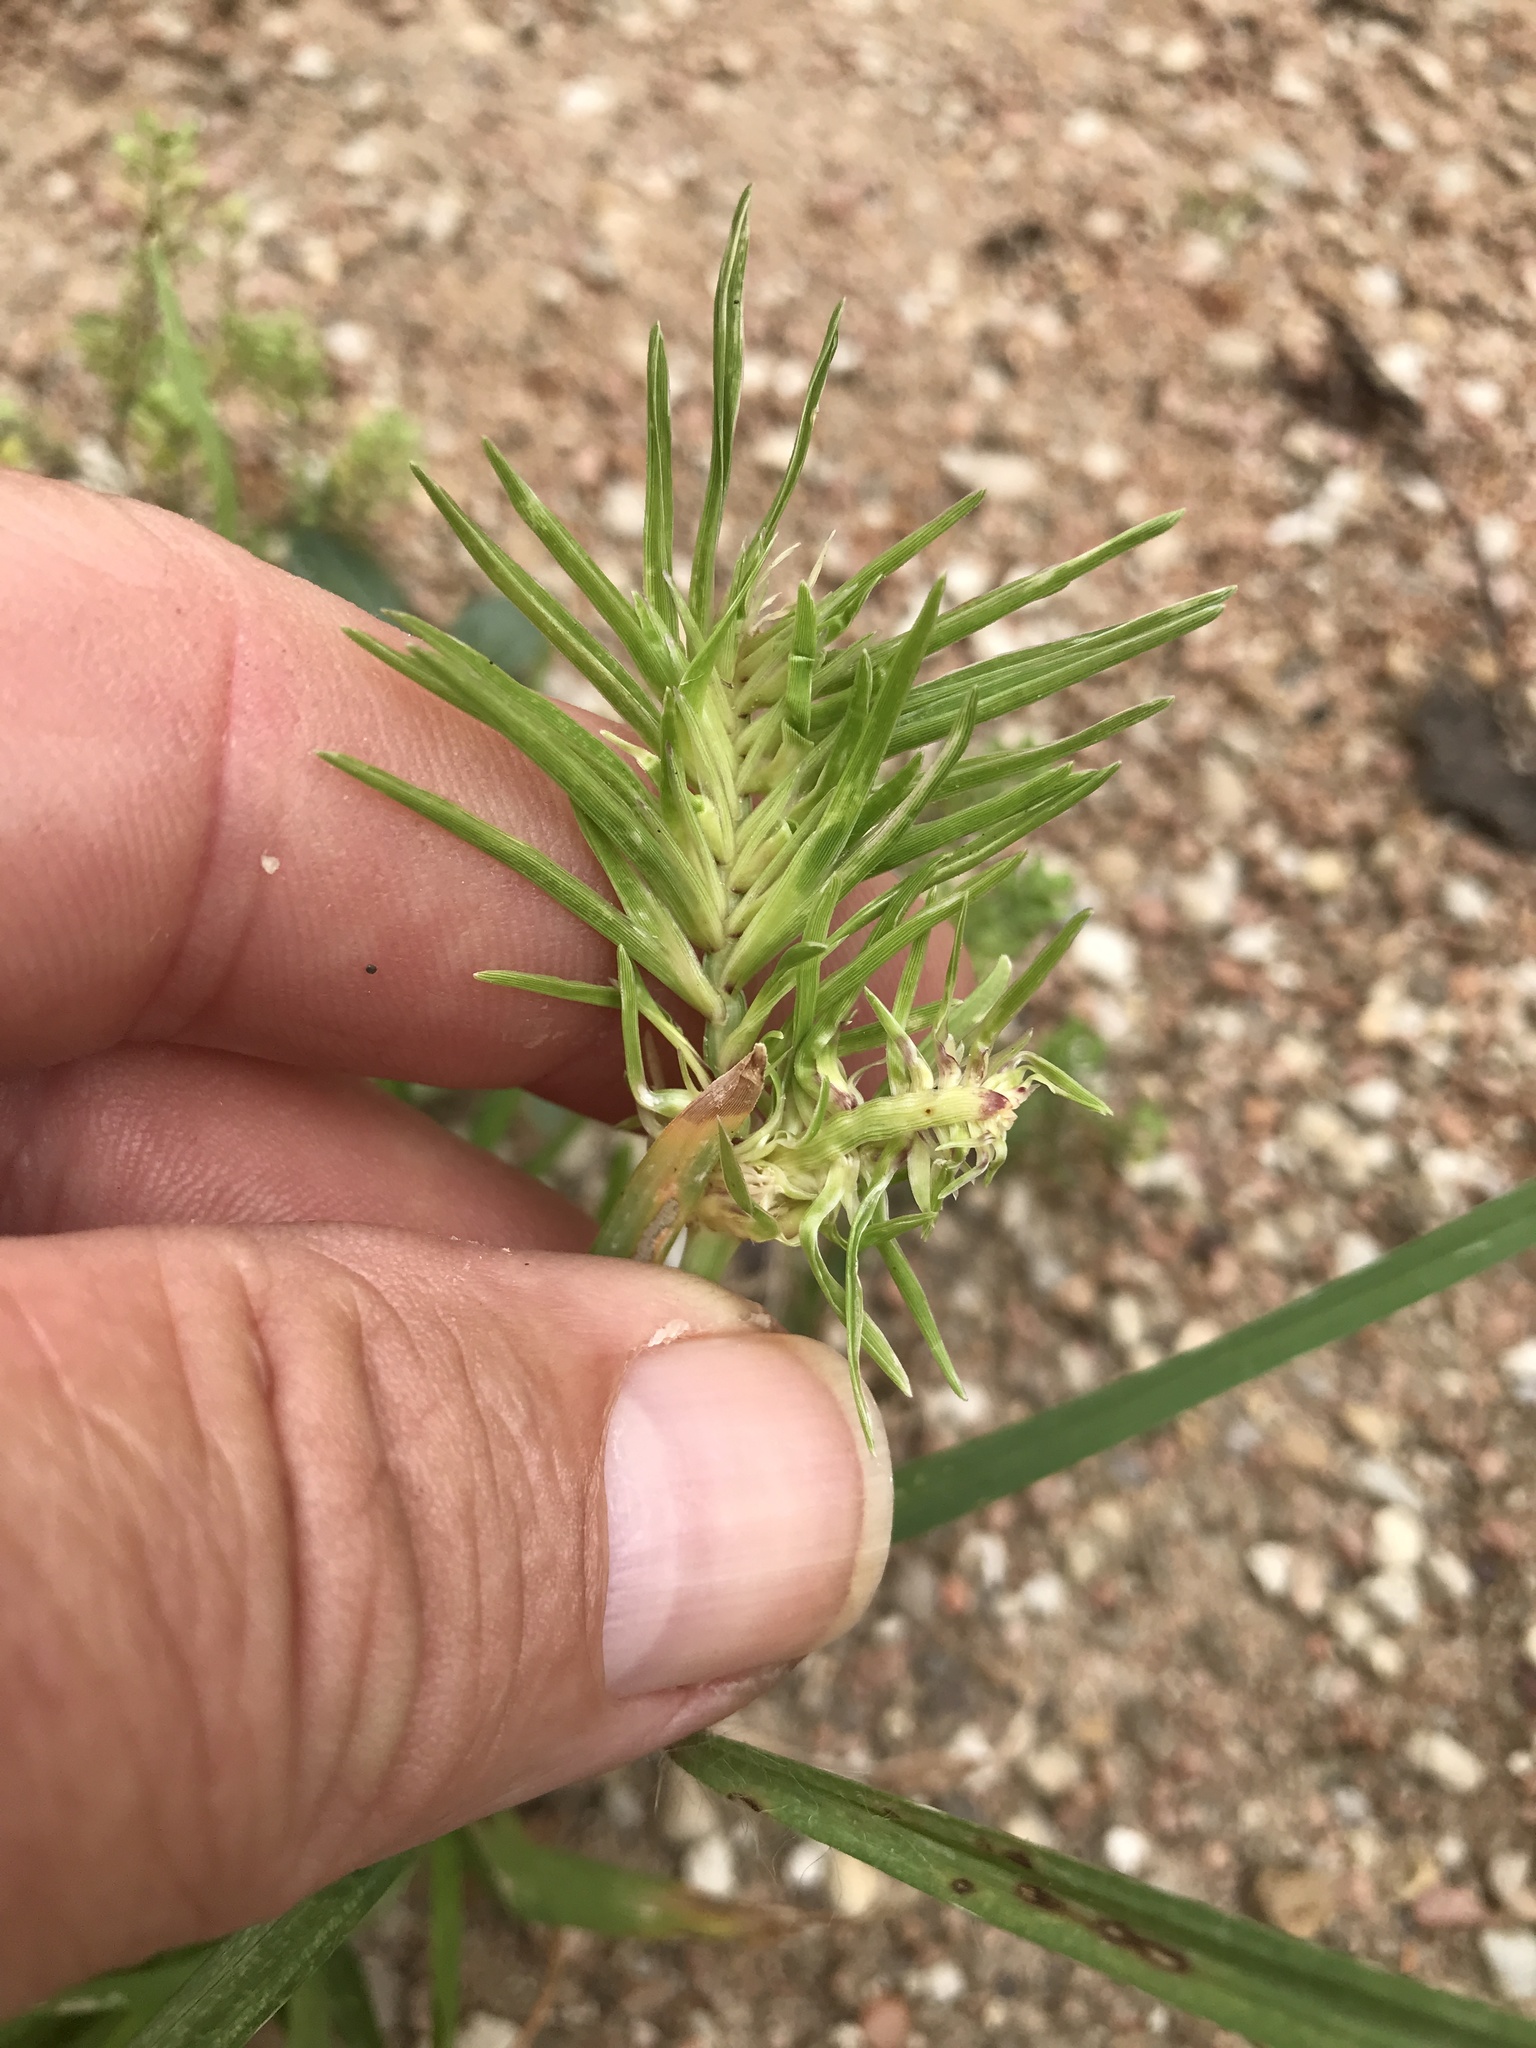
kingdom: Plantae
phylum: Tracheophyta
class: Liliopsida
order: Poales
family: Poaceae
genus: Eleusine
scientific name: Eleusine indica
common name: Yard-grass
